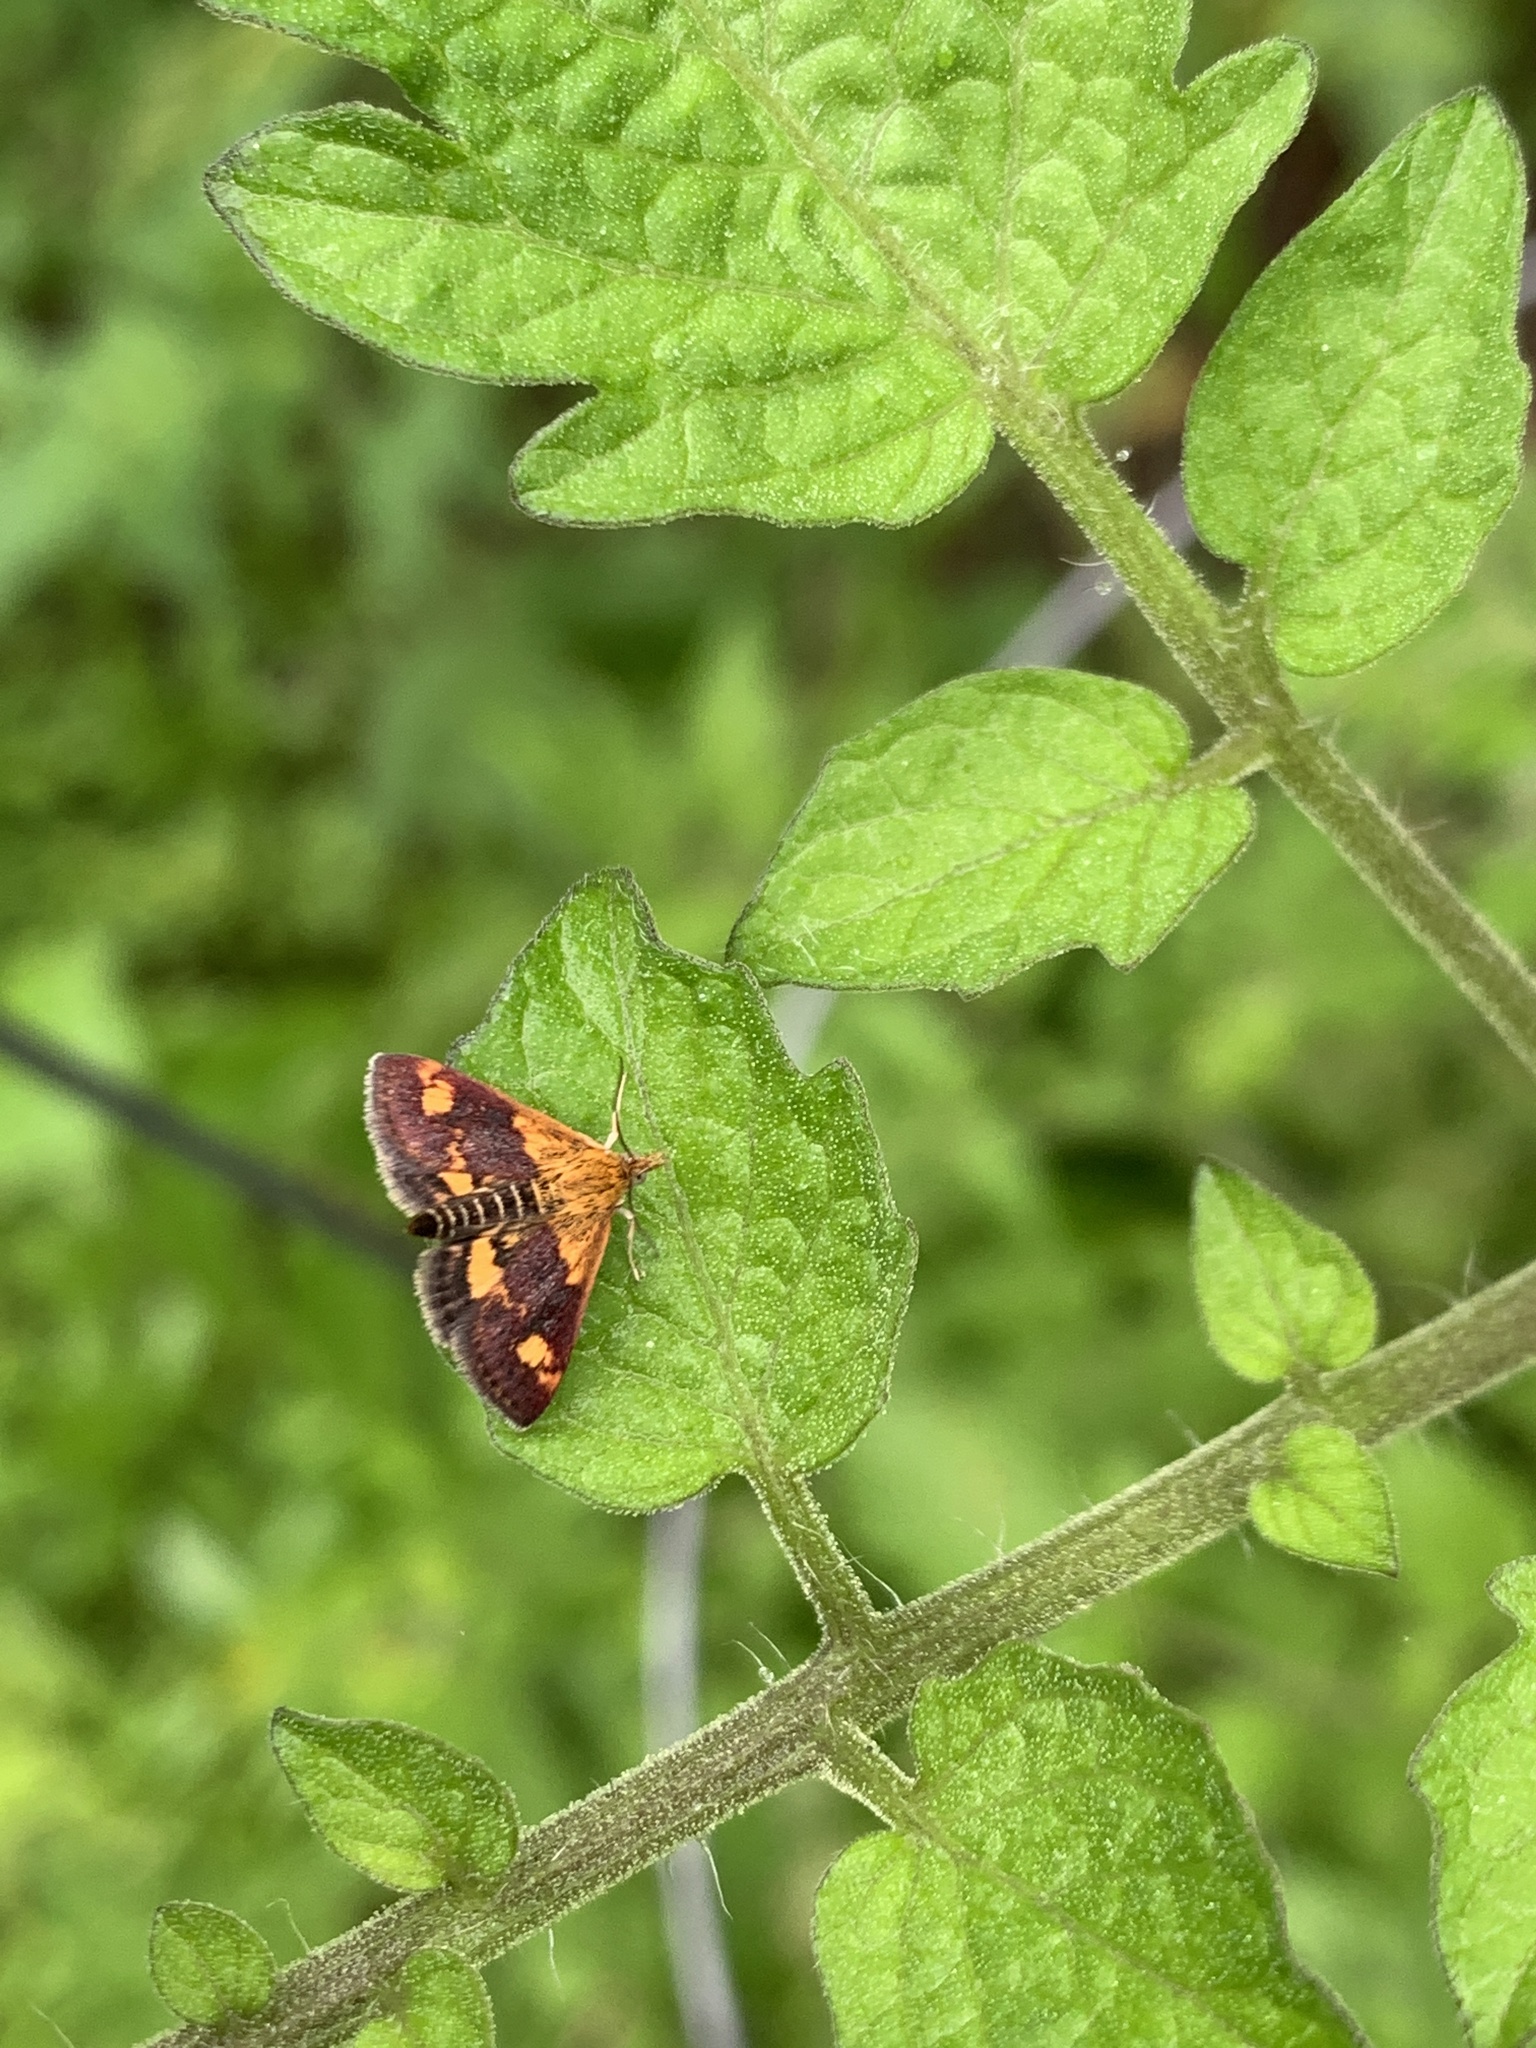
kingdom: Animalia
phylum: Arthropoda
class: Insecta
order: Lepidoptera
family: Crambidae
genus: Pyrausta
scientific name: Pyrausta orphisalis
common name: Orange mint moth
